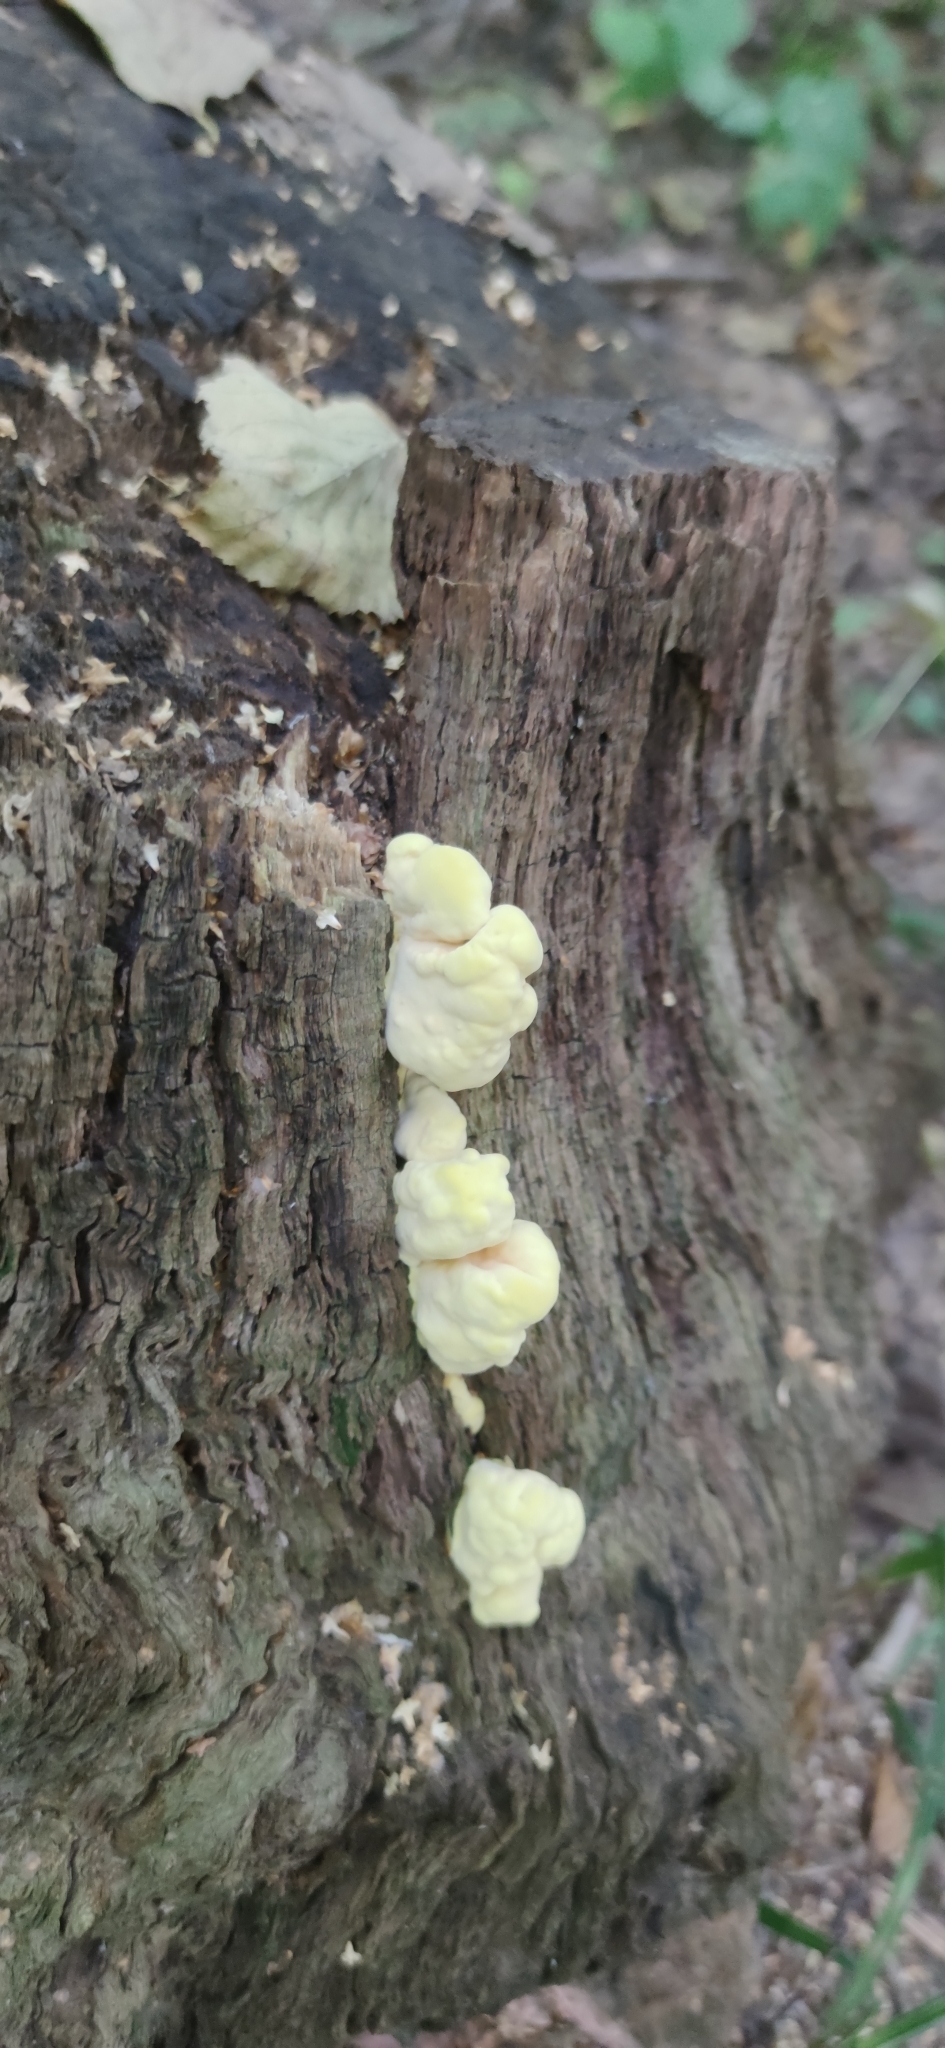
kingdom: Fungi
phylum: Basidiomycota
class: Agaricomycetes
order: Polyporales
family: Laetiporaceae
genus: Laetiporus
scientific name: Laetiporus sulphureus
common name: Chicken of the woods
